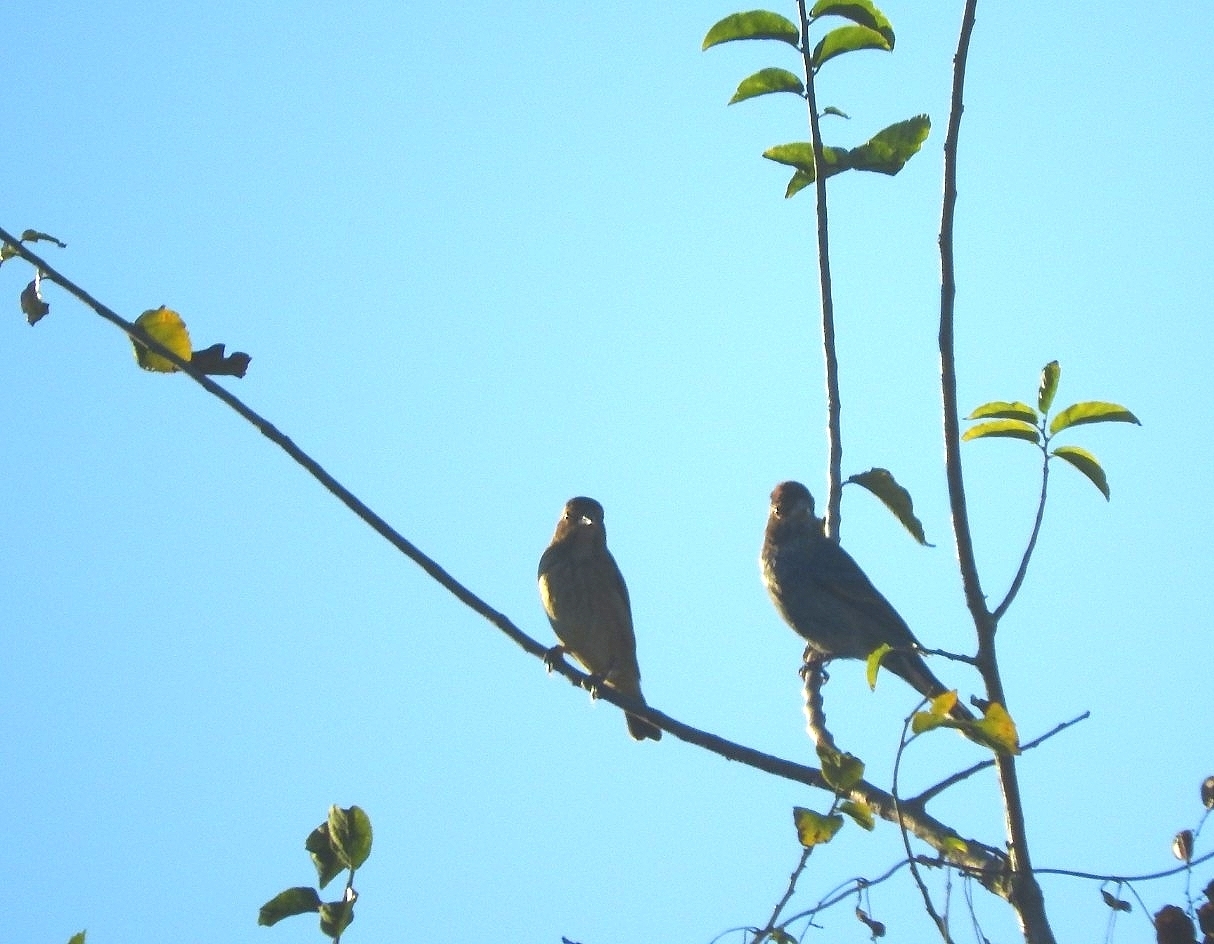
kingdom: Animalia
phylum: Chordata
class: Aves
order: Passeriformes
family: Cardinalidae
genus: Passerina
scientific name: Passerina cyanea
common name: Indigo bunting
